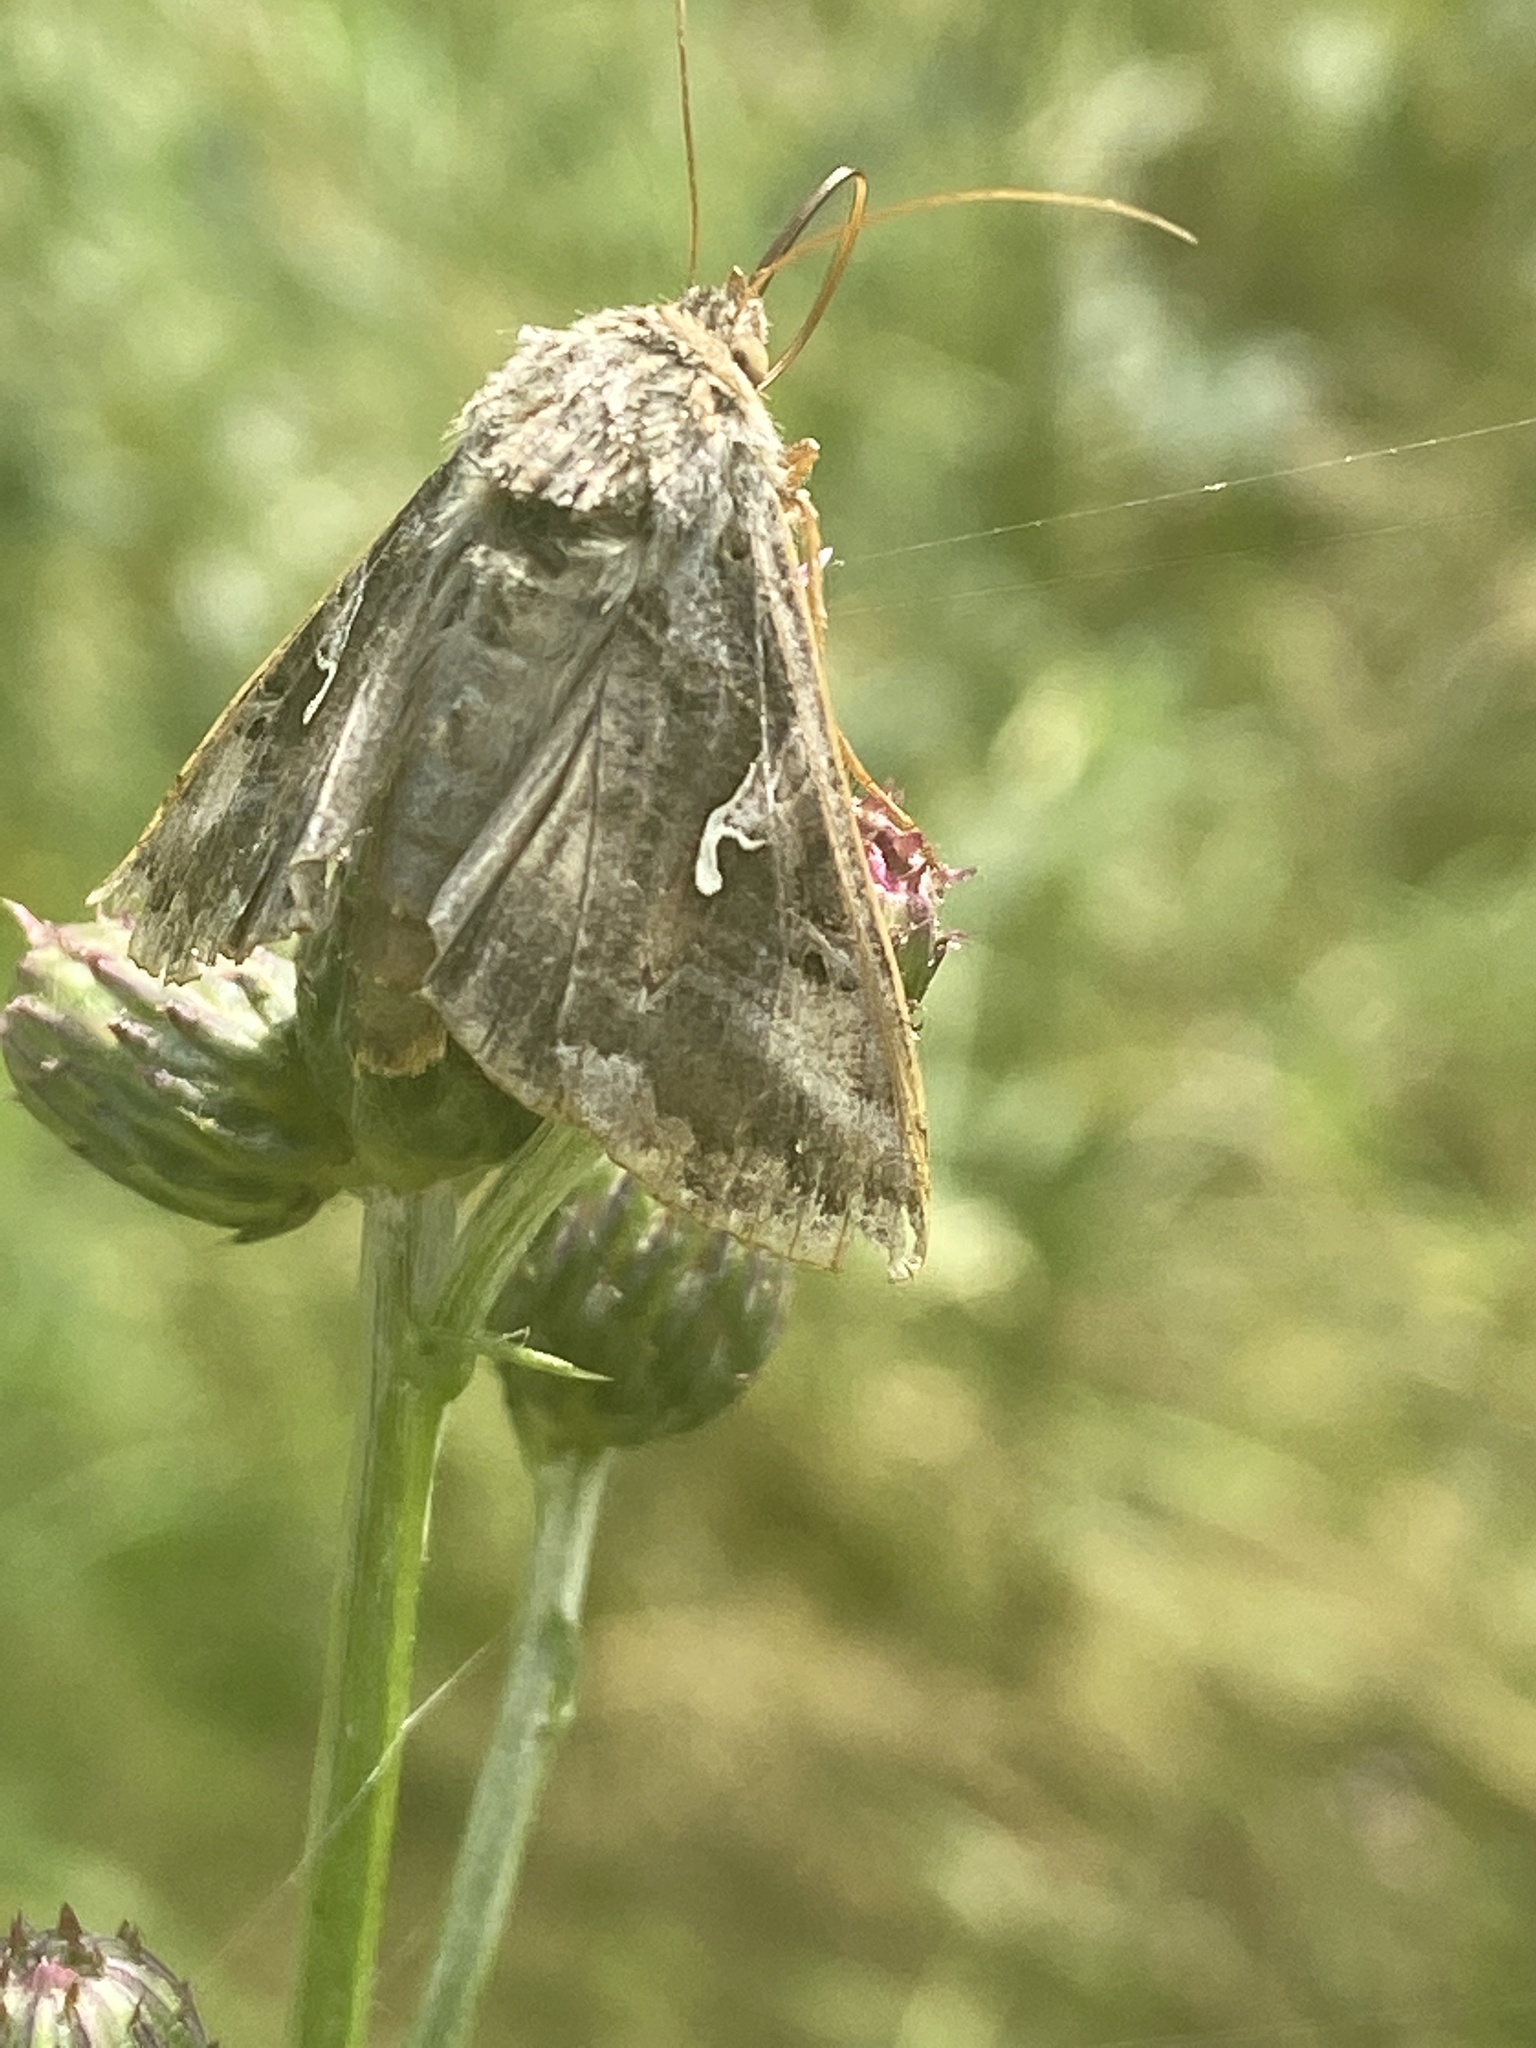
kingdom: Animalia
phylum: Arthropoda
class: Insecta
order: Lepidoptera
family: Noctuidae
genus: Autographa
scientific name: Autographa gamma
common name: Silver y
